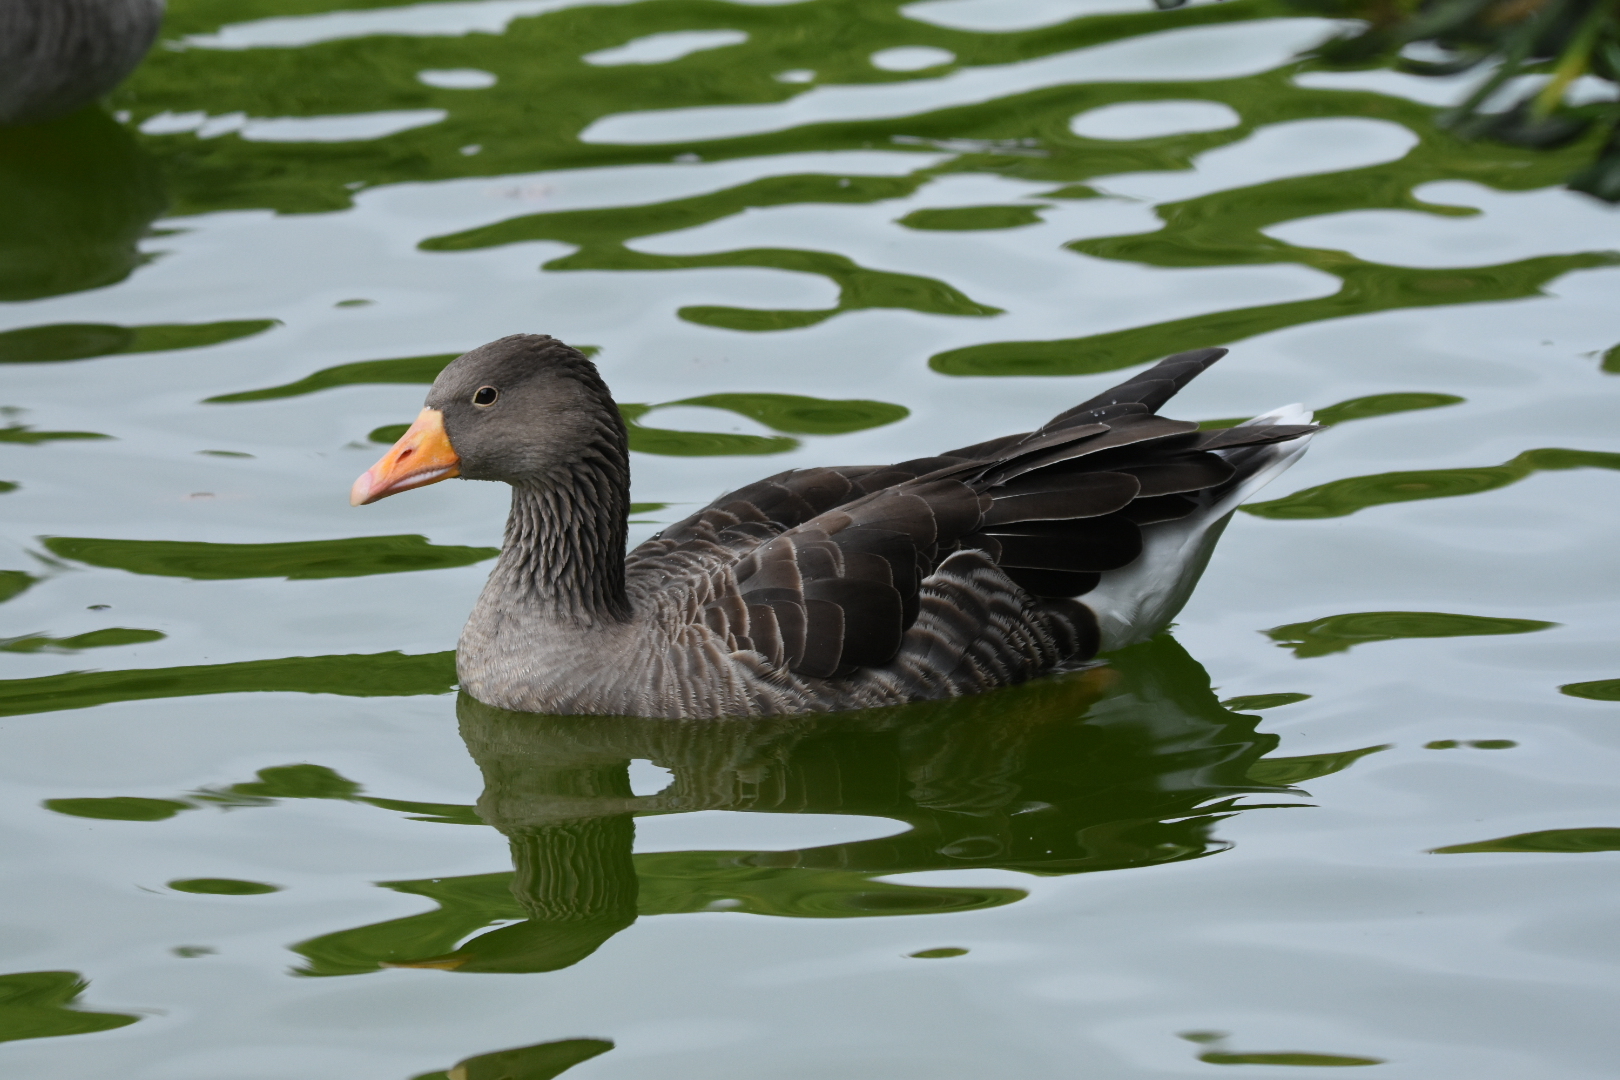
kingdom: Animalia
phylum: Chordata
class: Aves
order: Anseriformes
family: Anatidae
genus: Anser
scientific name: Anser anser
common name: Greylag goose
